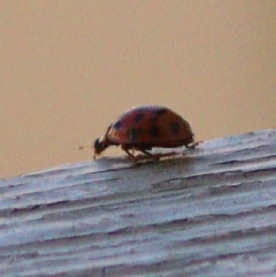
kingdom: Animalia
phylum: Arthropoda
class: Insecta
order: Coleoptera
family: Coccinellidae
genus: Harmonia
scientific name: Harmonia axyridis
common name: Harlequin ladybird
